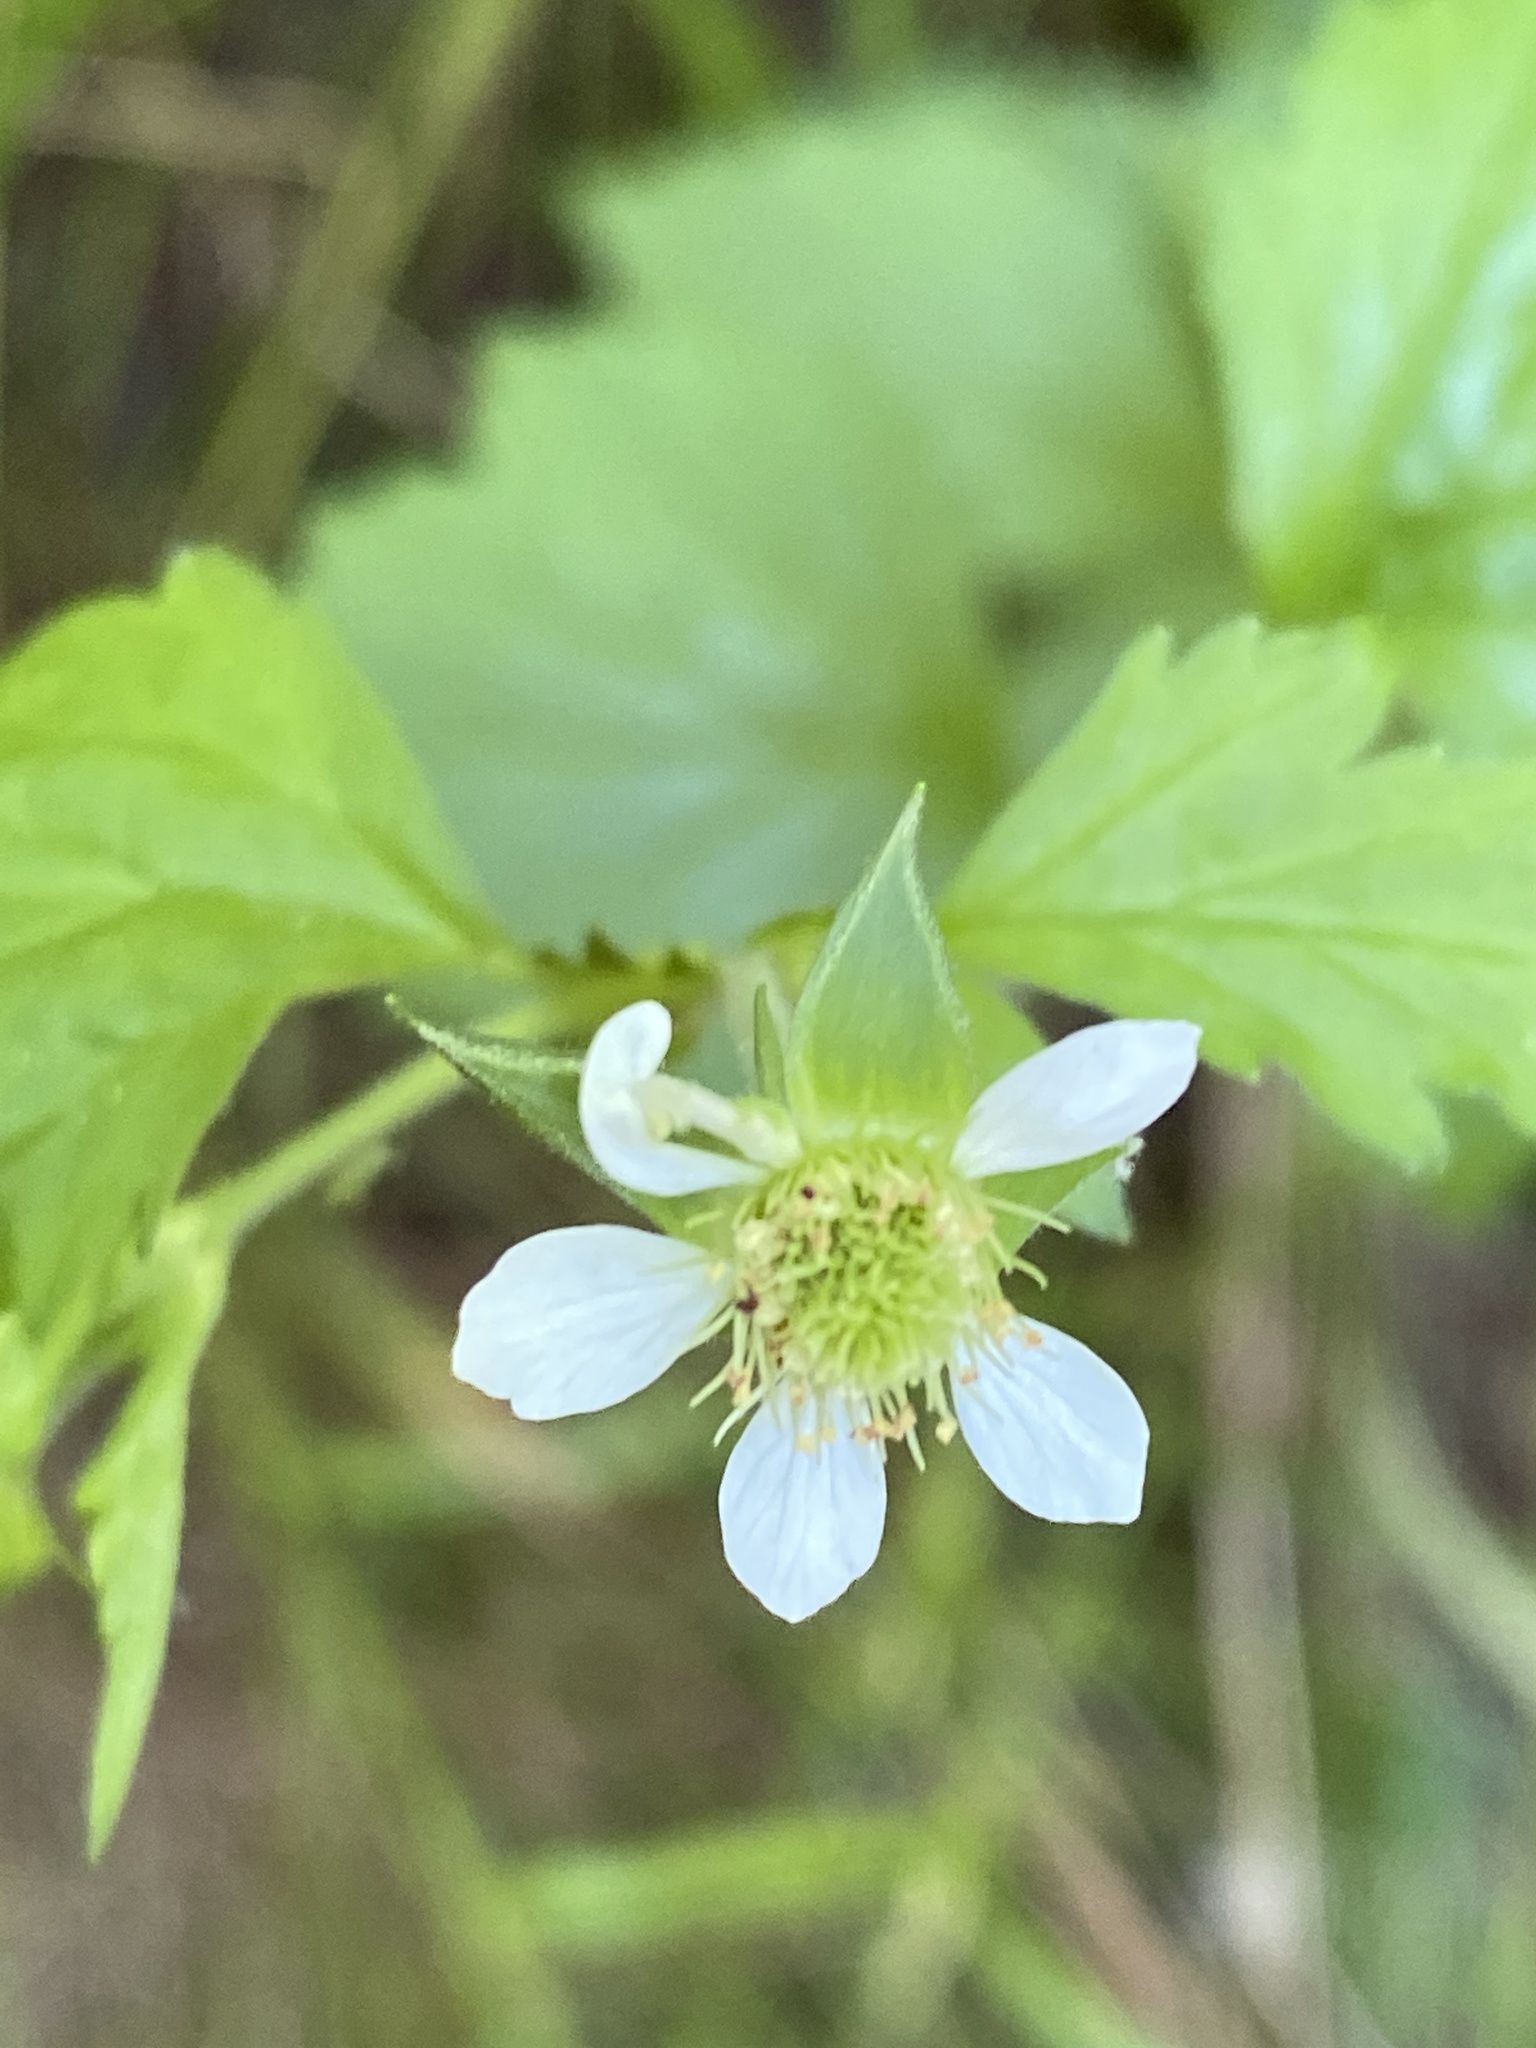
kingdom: Plantae
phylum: Tracheophyta
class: Magnoliopsida
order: Rosales
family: Rosaceae
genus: Geum
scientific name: Geum canadense
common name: White avens
